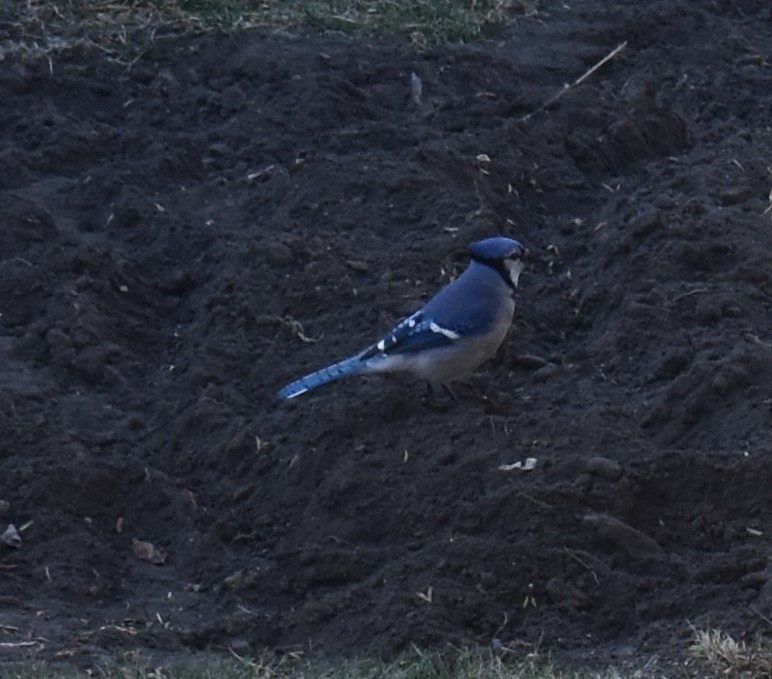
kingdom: Animalia
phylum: Chordata
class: Aves
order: Passeriformes
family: Corvidae
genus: Cyanocitta
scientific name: Cyanocitta cristata
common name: Blue jay
